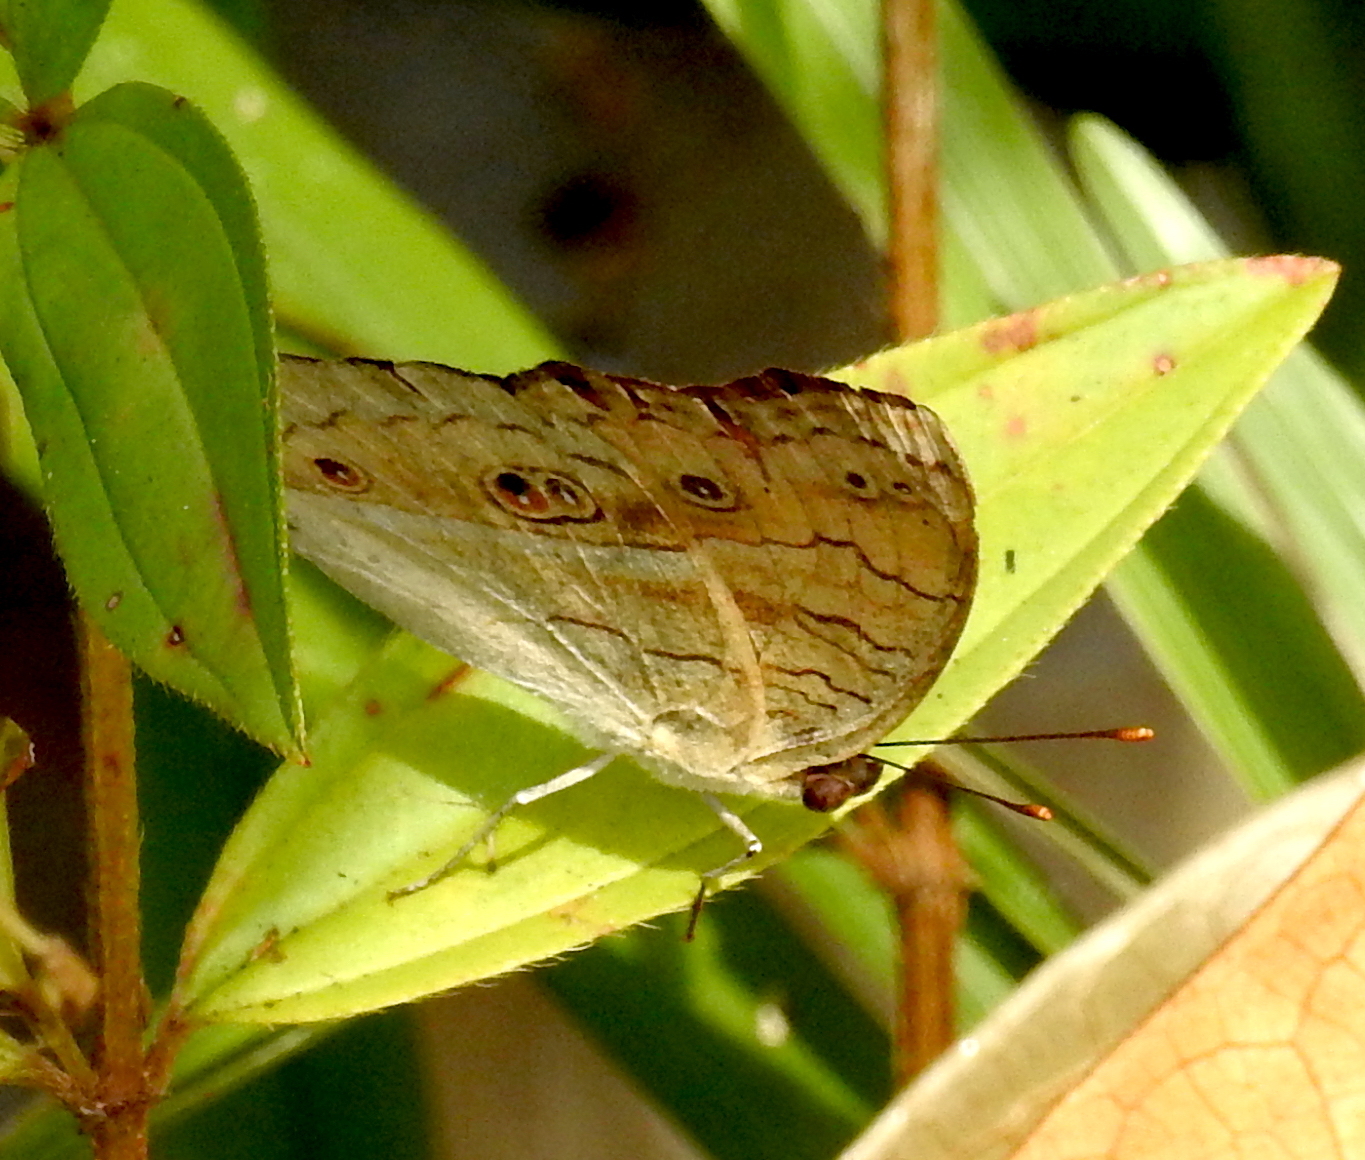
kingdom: Animalia
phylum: Arthropoda
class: Insecta
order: Lepidoptera
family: Nymphalidae
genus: Junonia
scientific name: Junonia almana
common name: Peacock pansy
